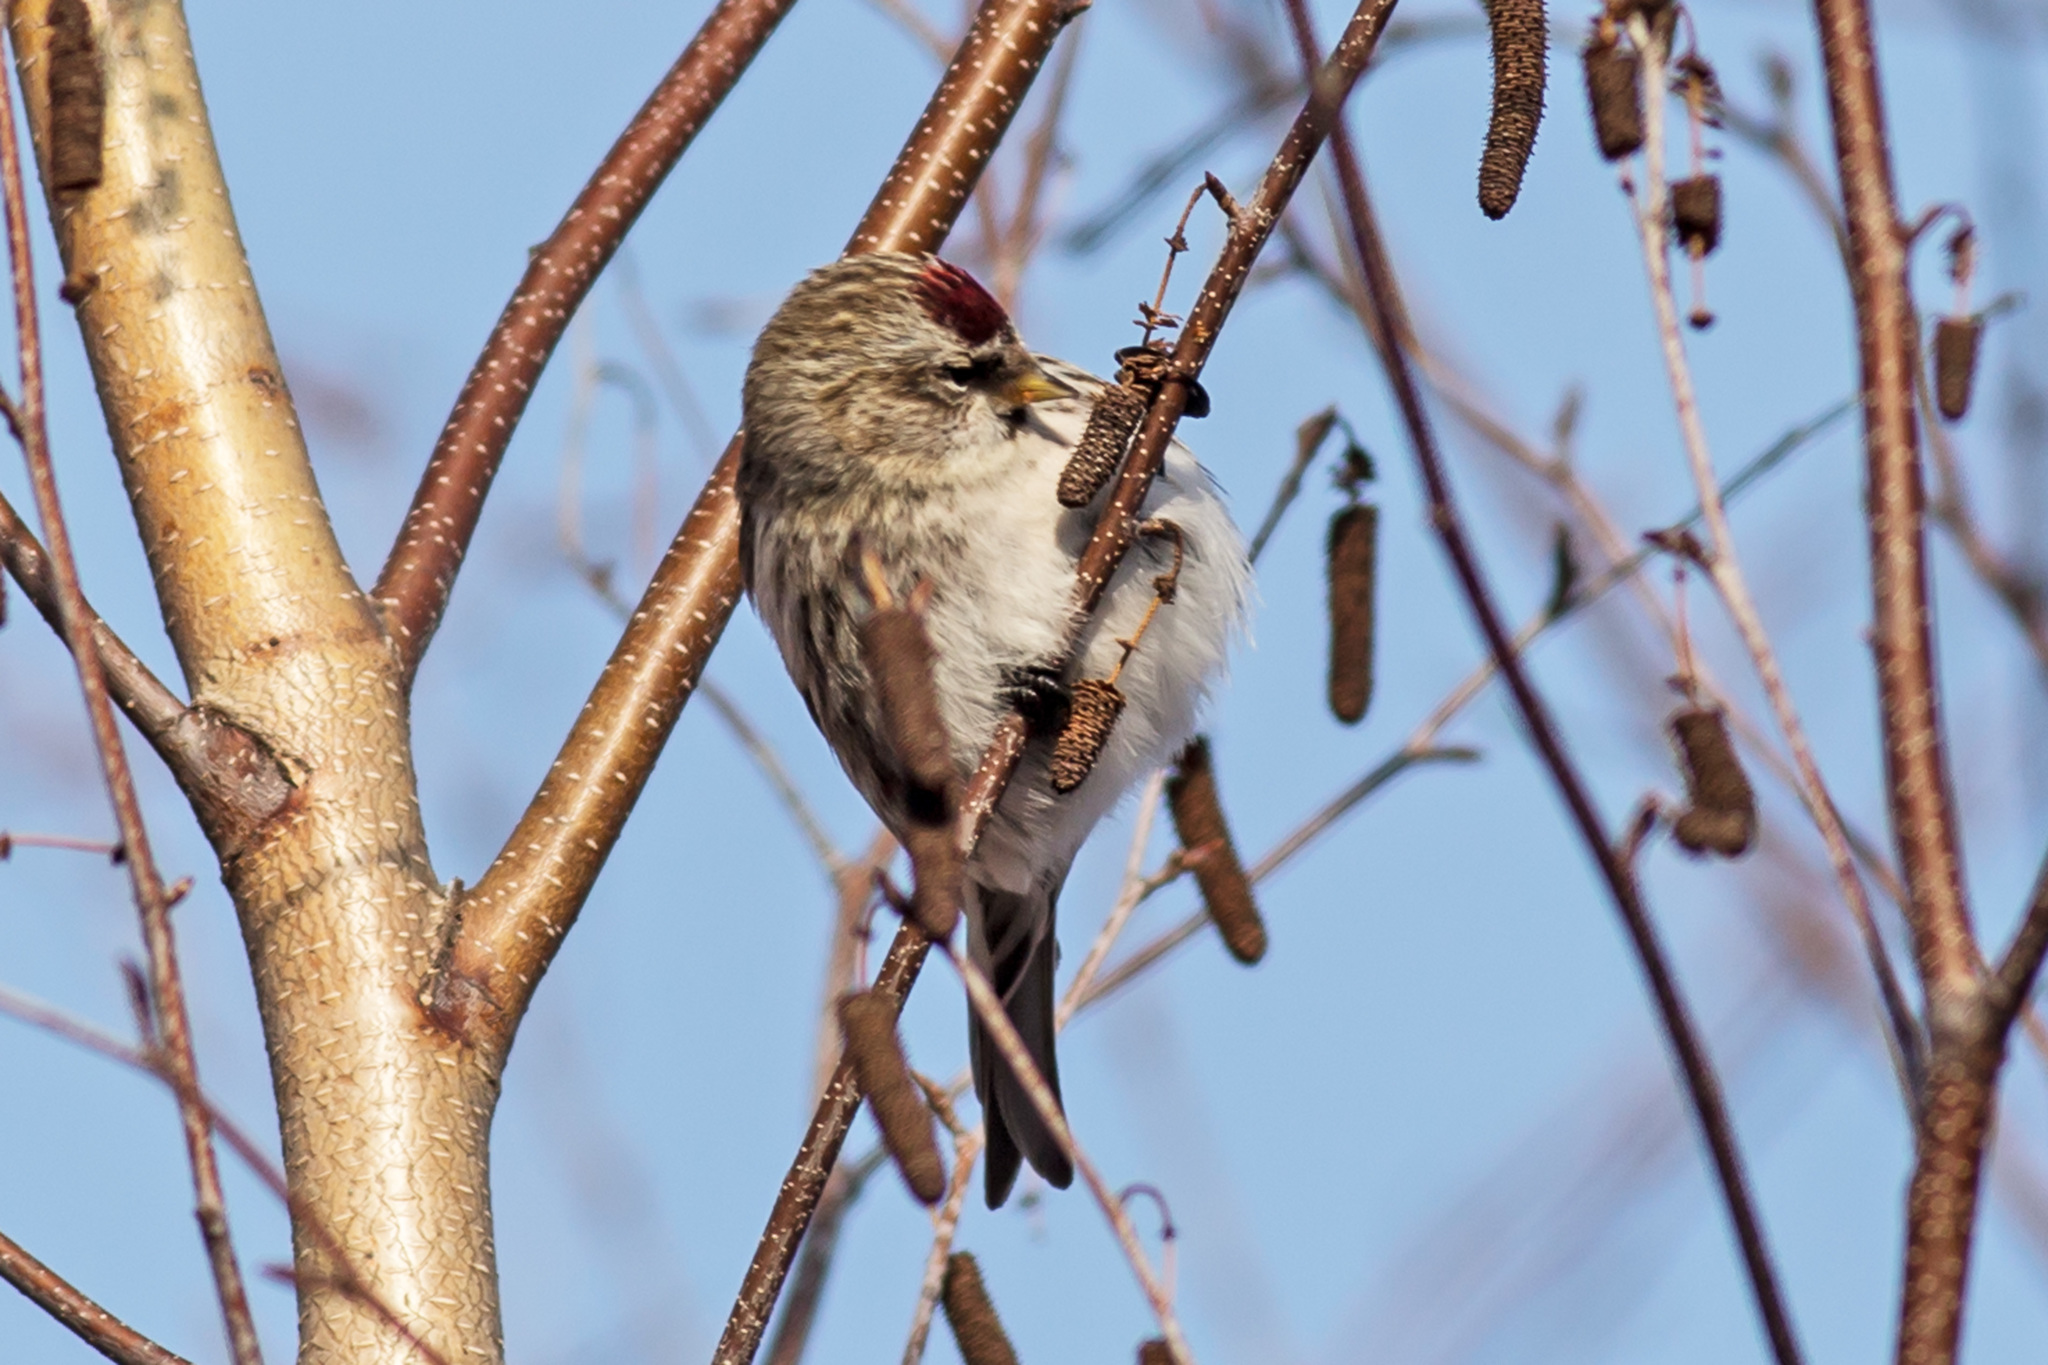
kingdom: Animalia
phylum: Chordata
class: Aves
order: Passeriformes
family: Fringillidae
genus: Acanthis
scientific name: Acanthis flammea
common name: Common redpoll
